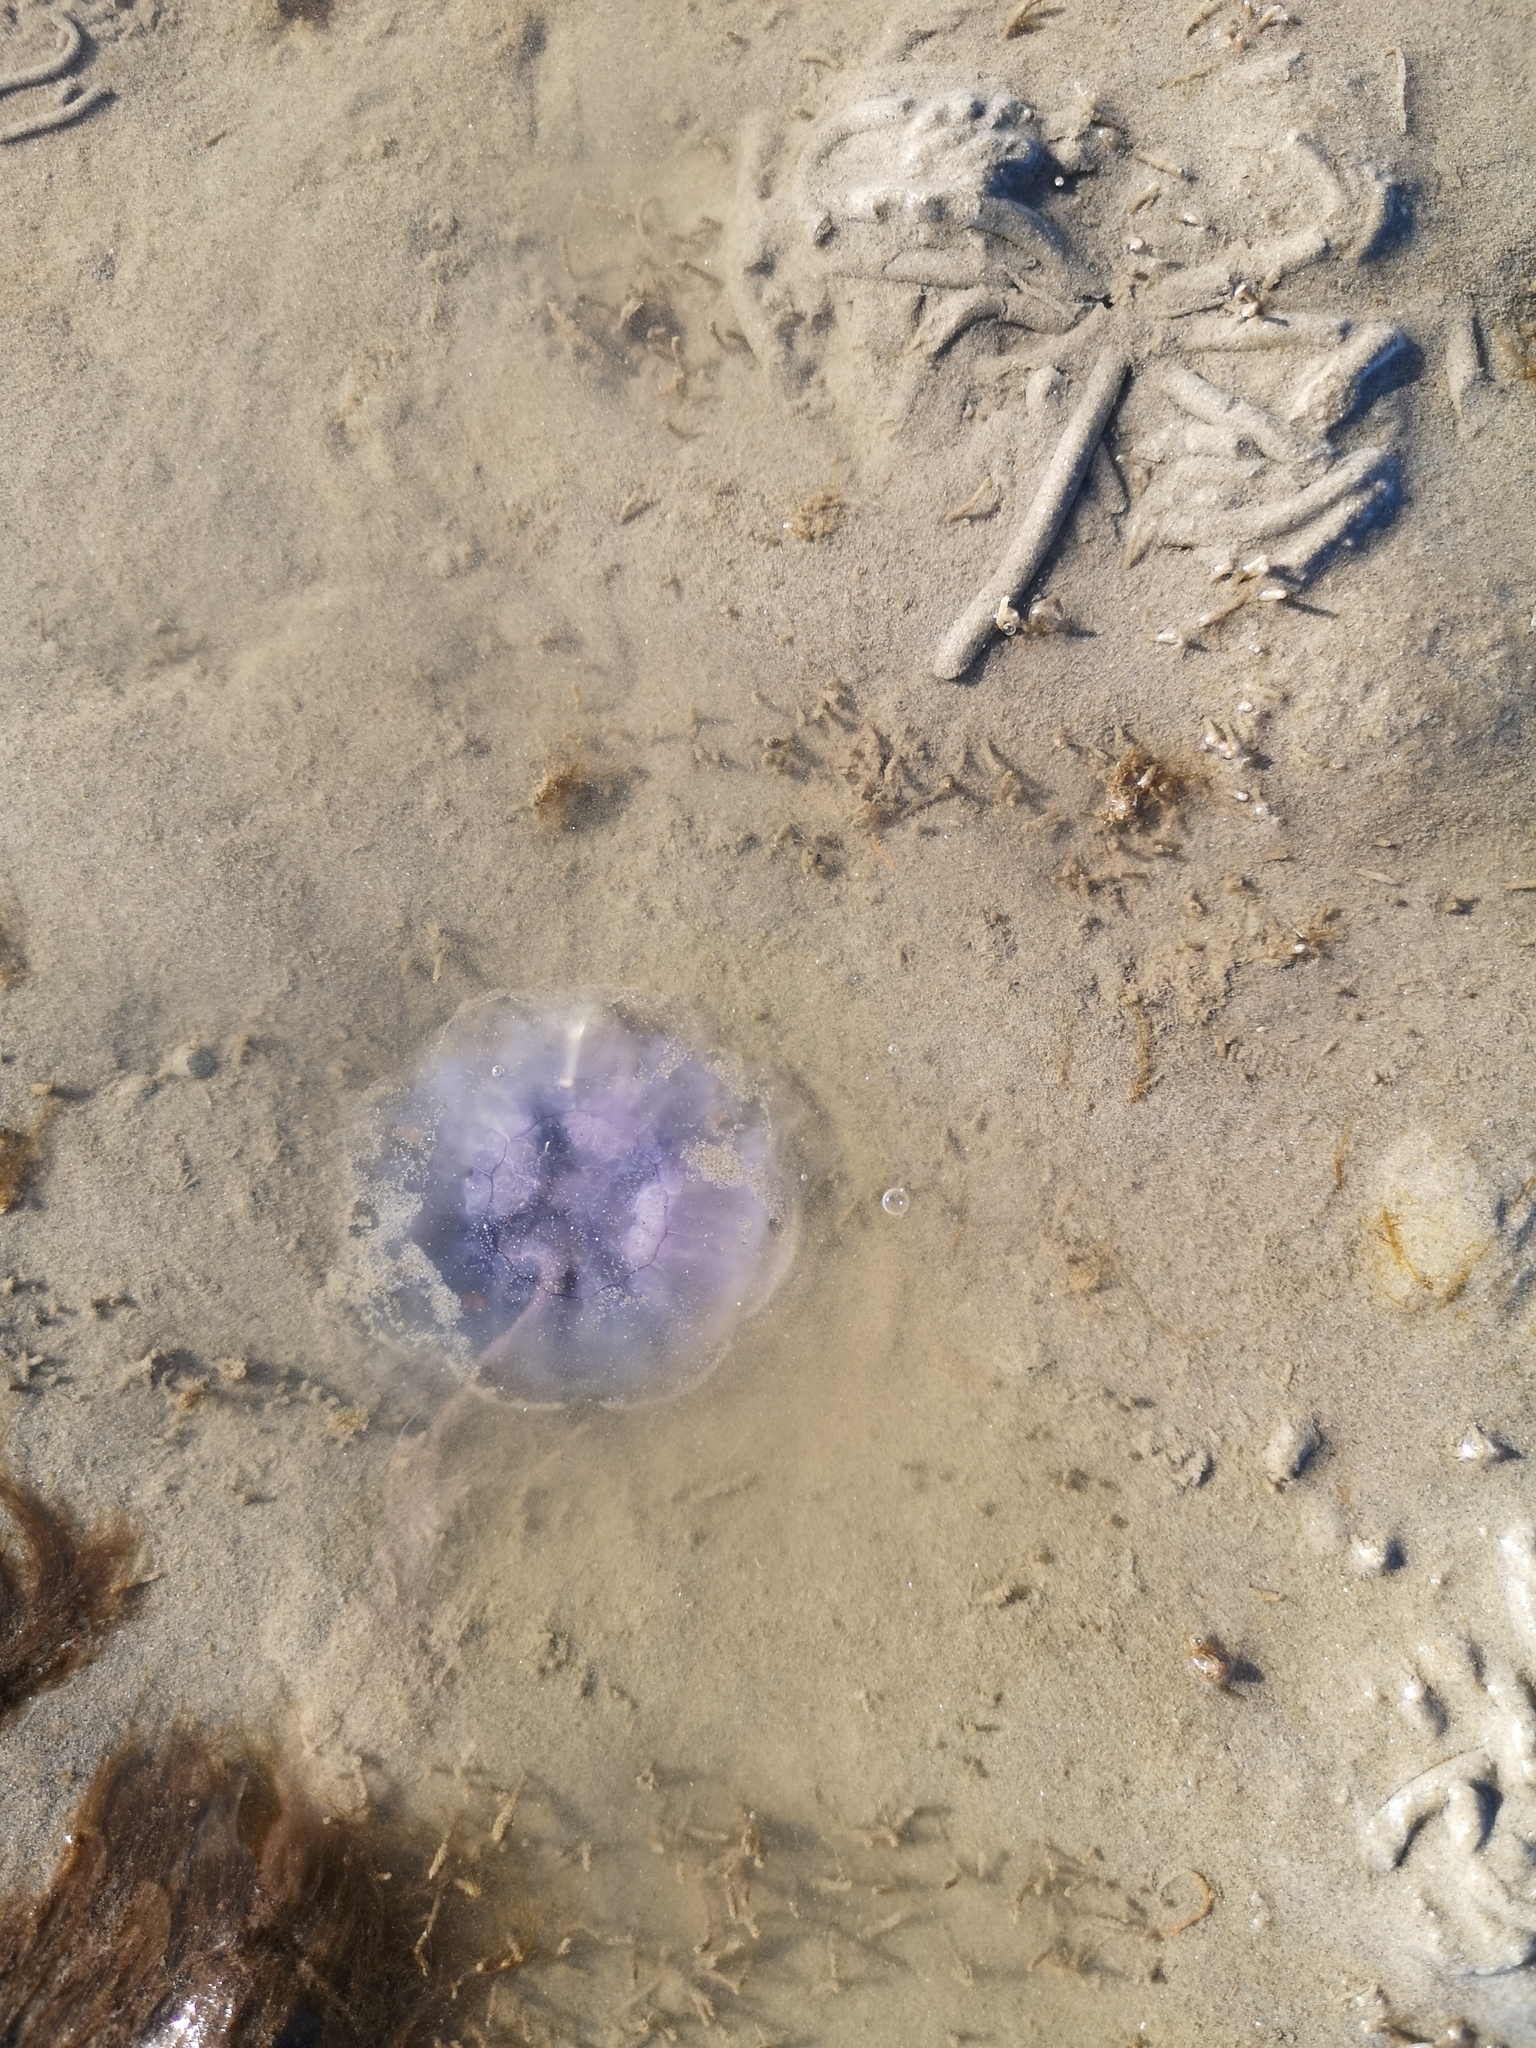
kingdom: Animalia
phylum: Cnidaria
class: Scyphozoa
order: Semaeostomeae
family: Cyaneidae
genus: Cyanea
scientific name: Cyanea lamarckii
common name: Blue jellyfish
